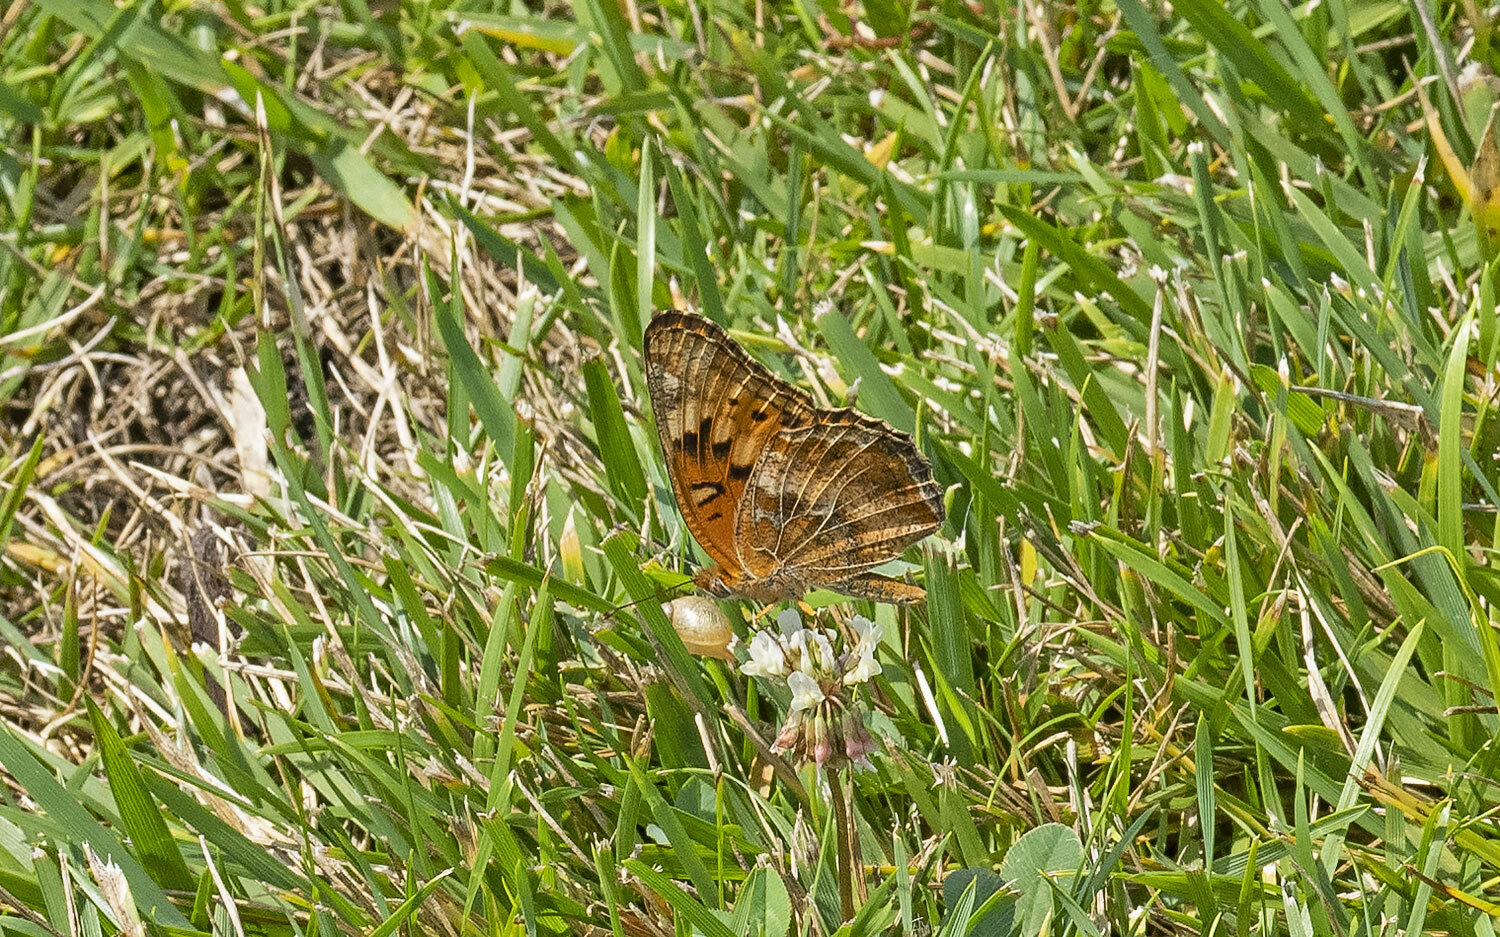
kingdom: Animalia
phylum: Arthropoda
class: Insecta
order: Lepidoptera
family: Nymphalidae
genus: Euptoieta
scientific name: Euptoieta claudia
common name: Variegated fritillary
